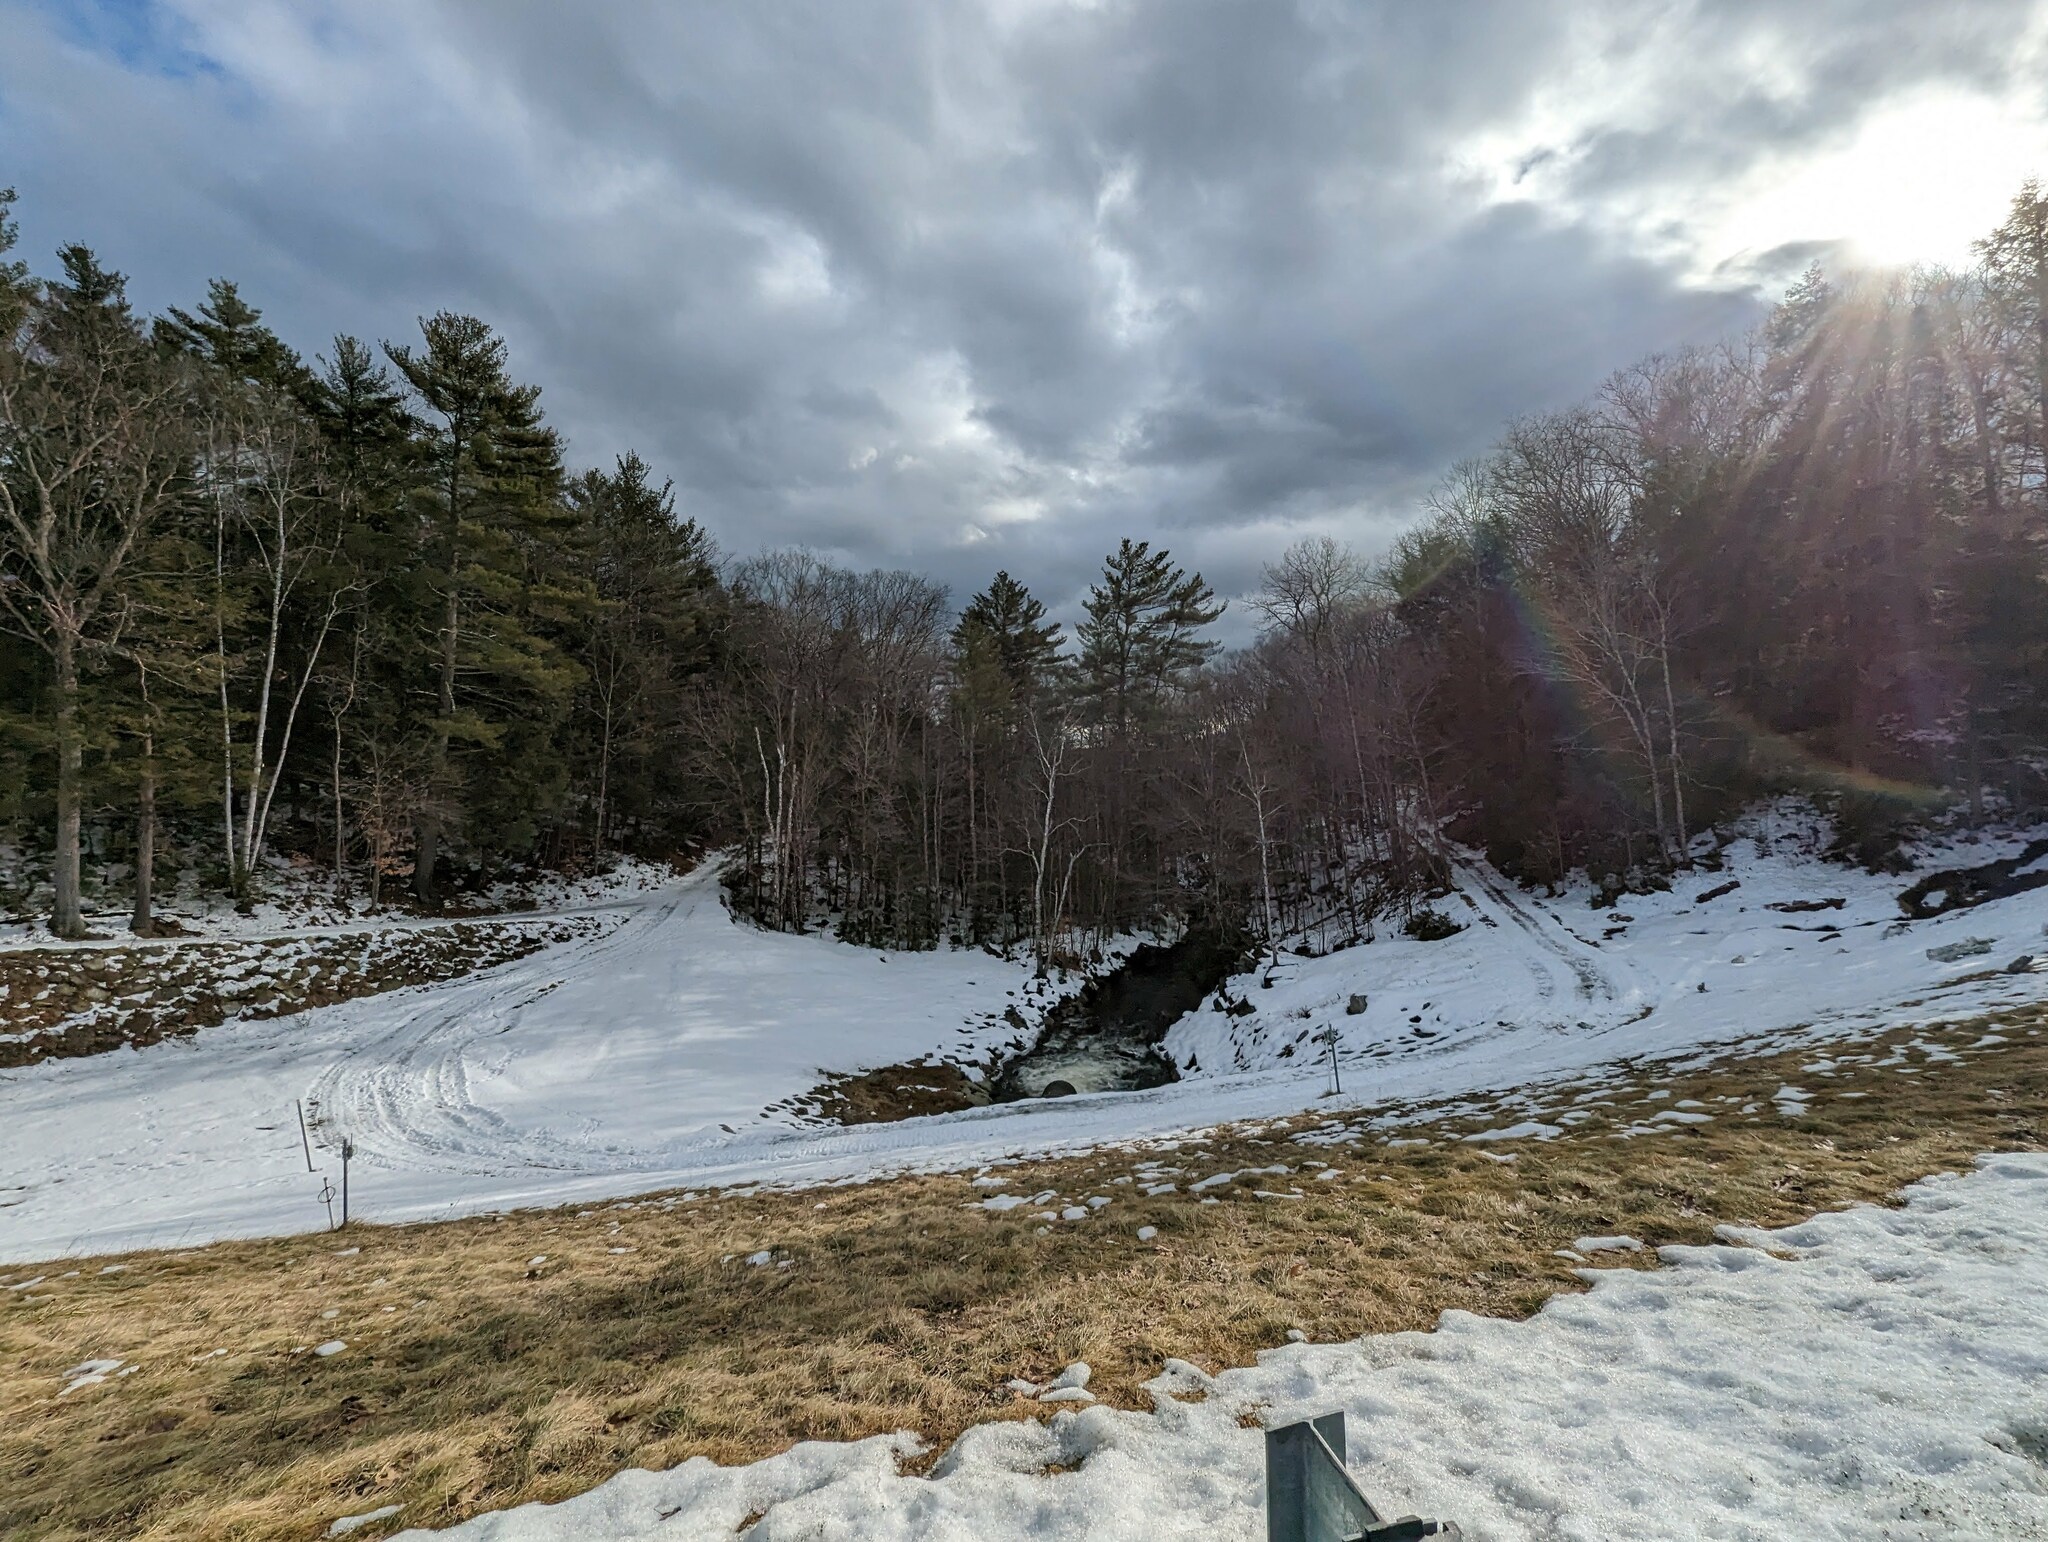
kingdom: Plantae
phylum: Tracheophyta
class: Pinopsida
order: Pinales
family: Pinaceae
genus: Pinus
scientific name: Pinus strobus
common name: Weymouth pine
